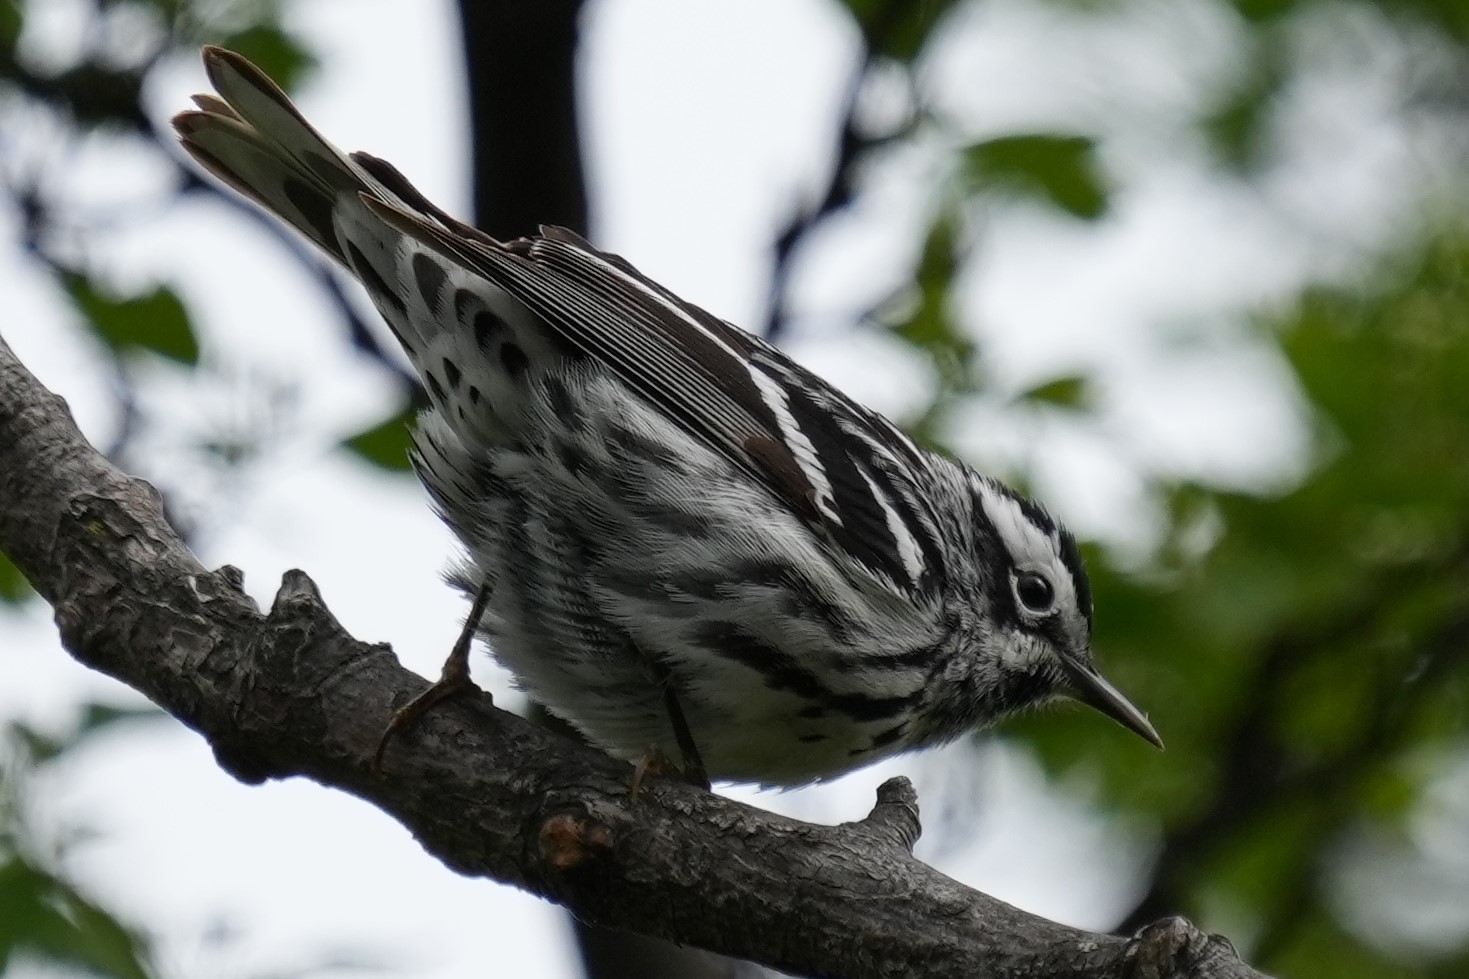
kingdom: Animalia
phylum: Chordata
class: Aves
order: Passeriformes
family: Parulidae
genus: Mniotilta
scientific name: Mniotilta varia
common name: Black-and-white warbler
